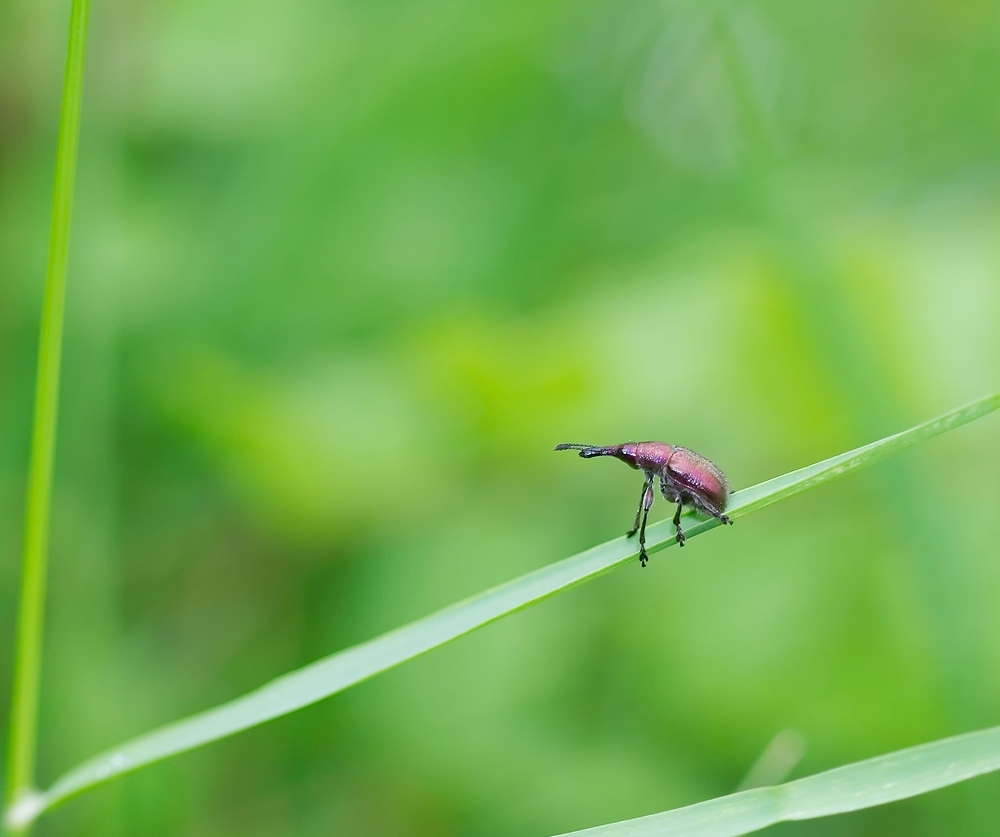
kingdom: Animalia
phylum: Arthropoda
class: Insecta
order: Coleoptera
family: Attelabidae
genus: Rhynchites
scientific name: Rhynchites auratus
